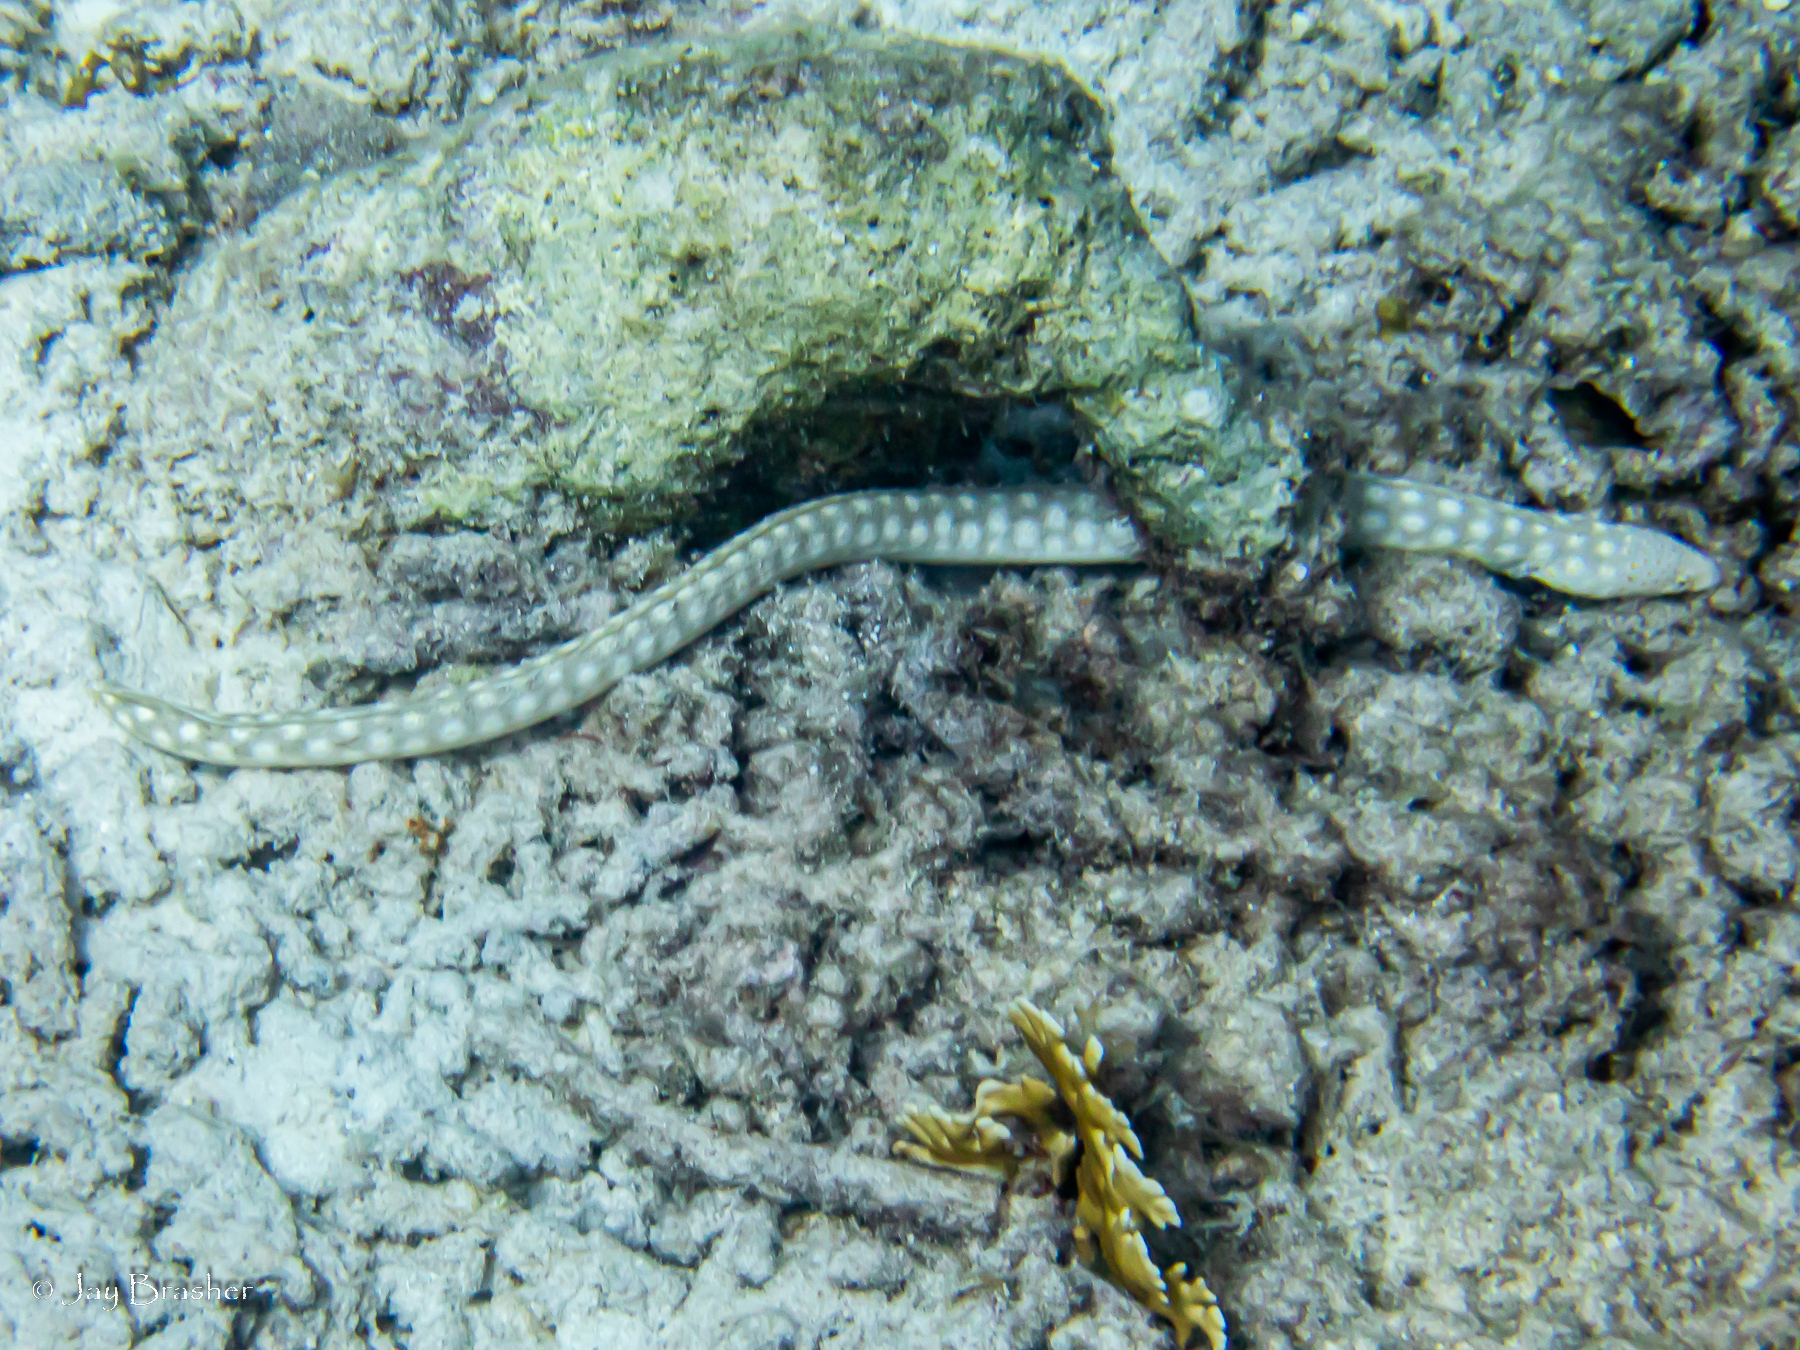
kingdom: Animalia
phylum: Chordata
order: Anguilliformes
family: Ophichthidae
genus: Myrichthys
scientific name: Myrichthys breviceps
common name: Sharptail eel
